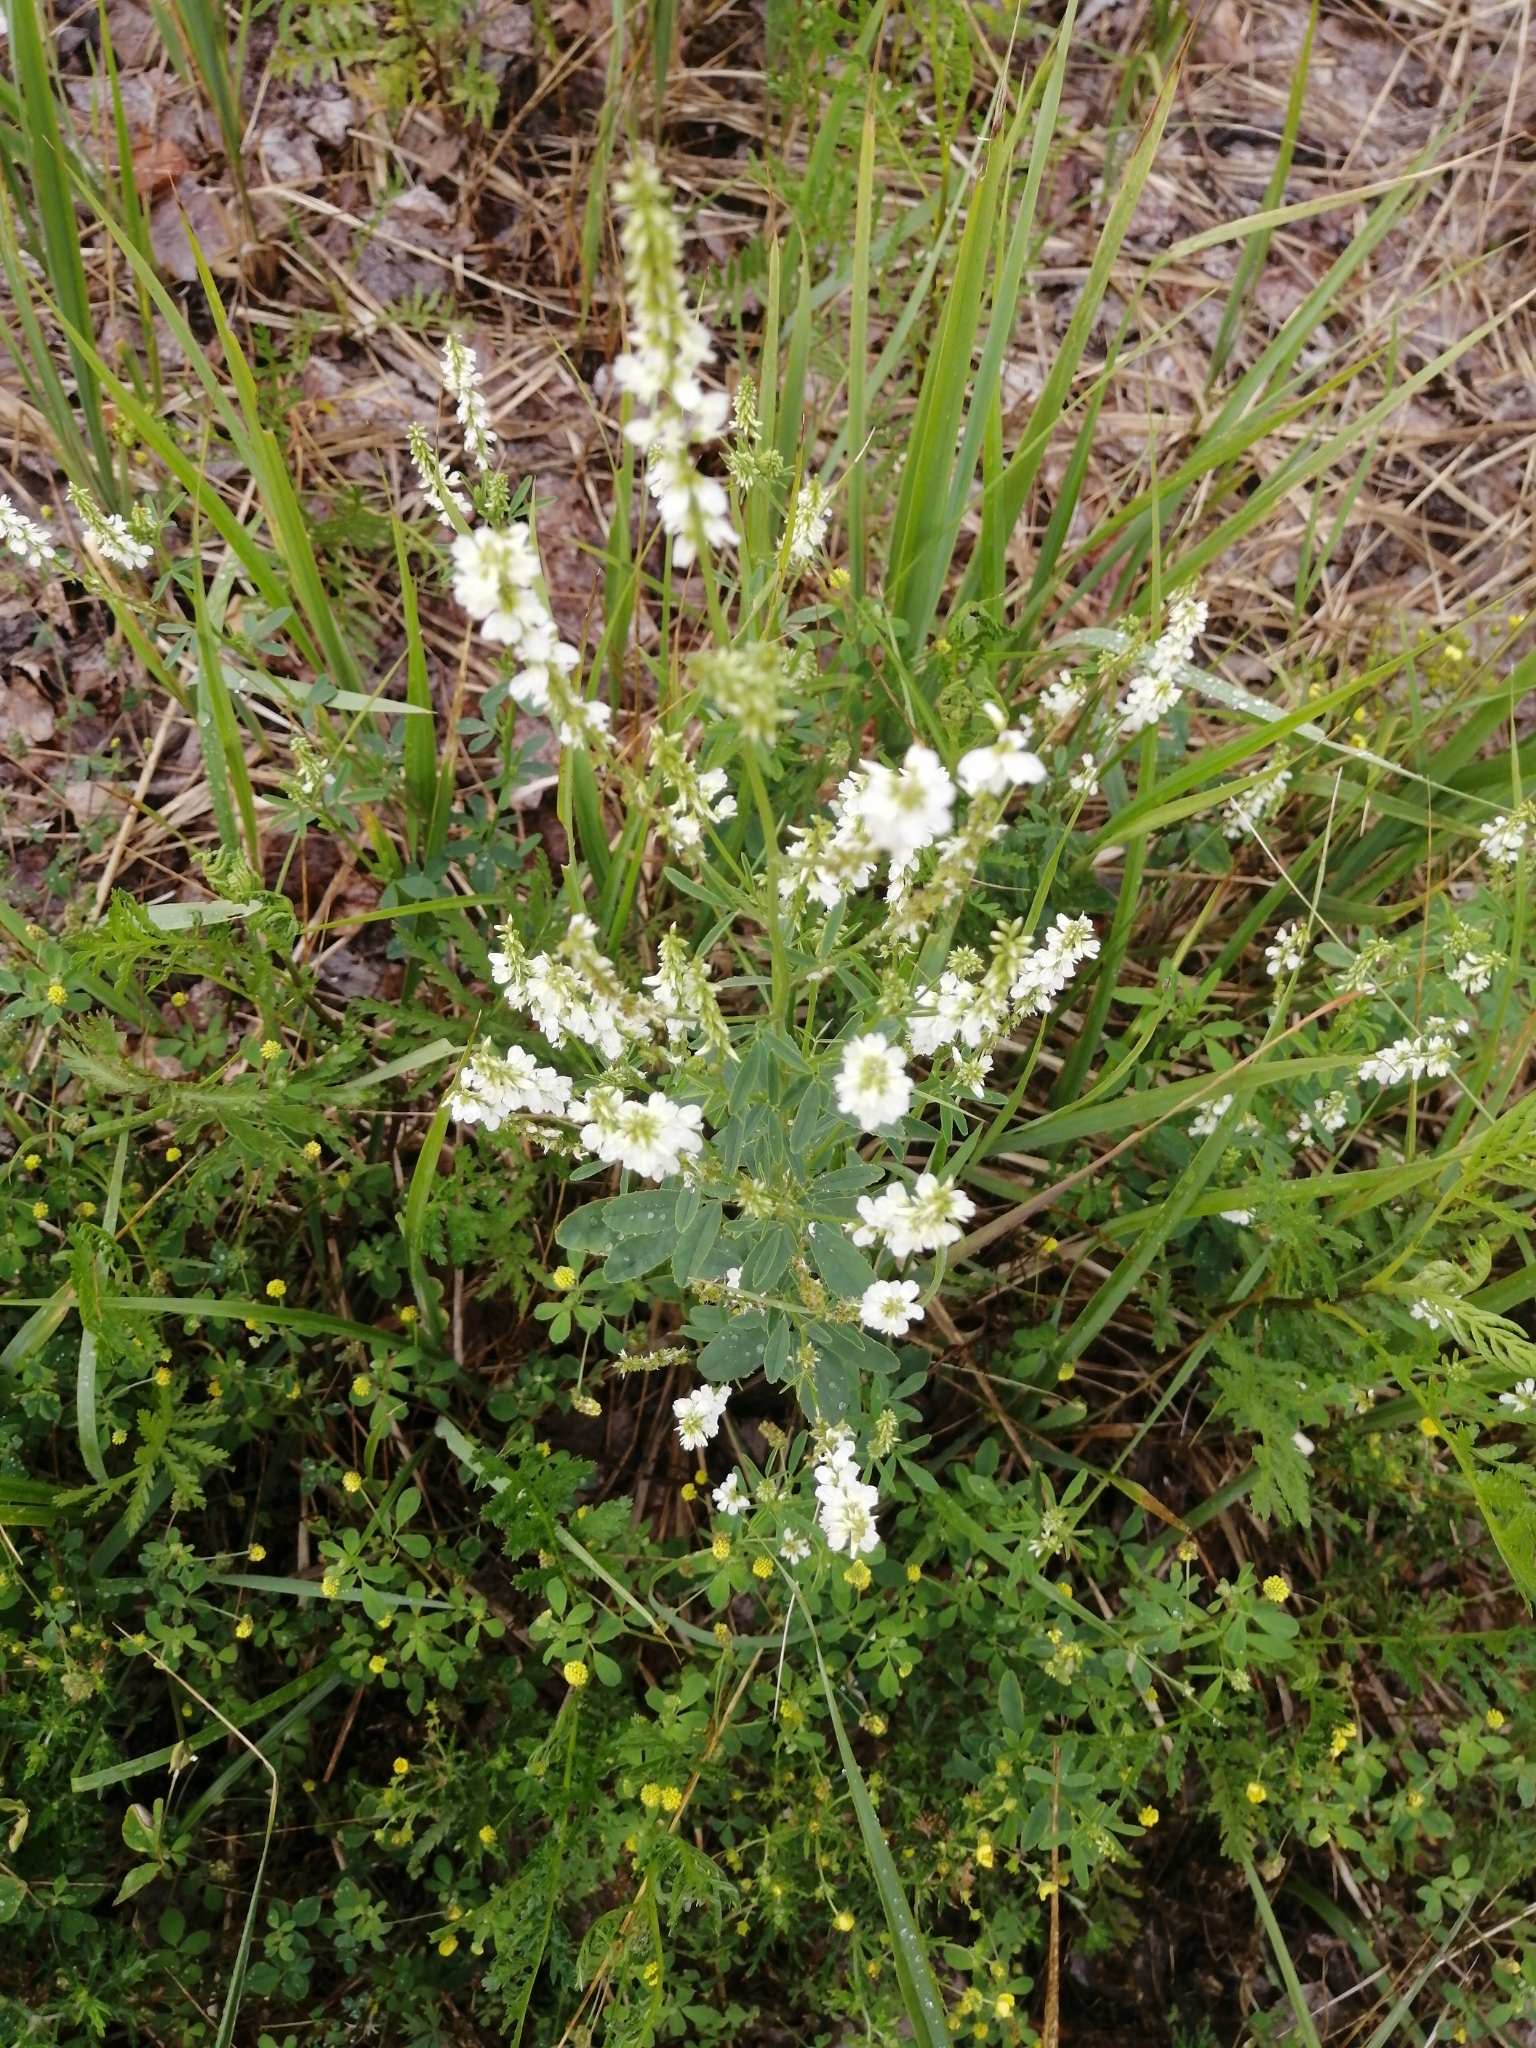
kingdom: Plantae
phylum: Tracheophyta
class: Magnoliopsida
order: Fabales
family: Fabaceae
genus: Melilotus
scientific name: Melilotus albus
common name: White melilot
